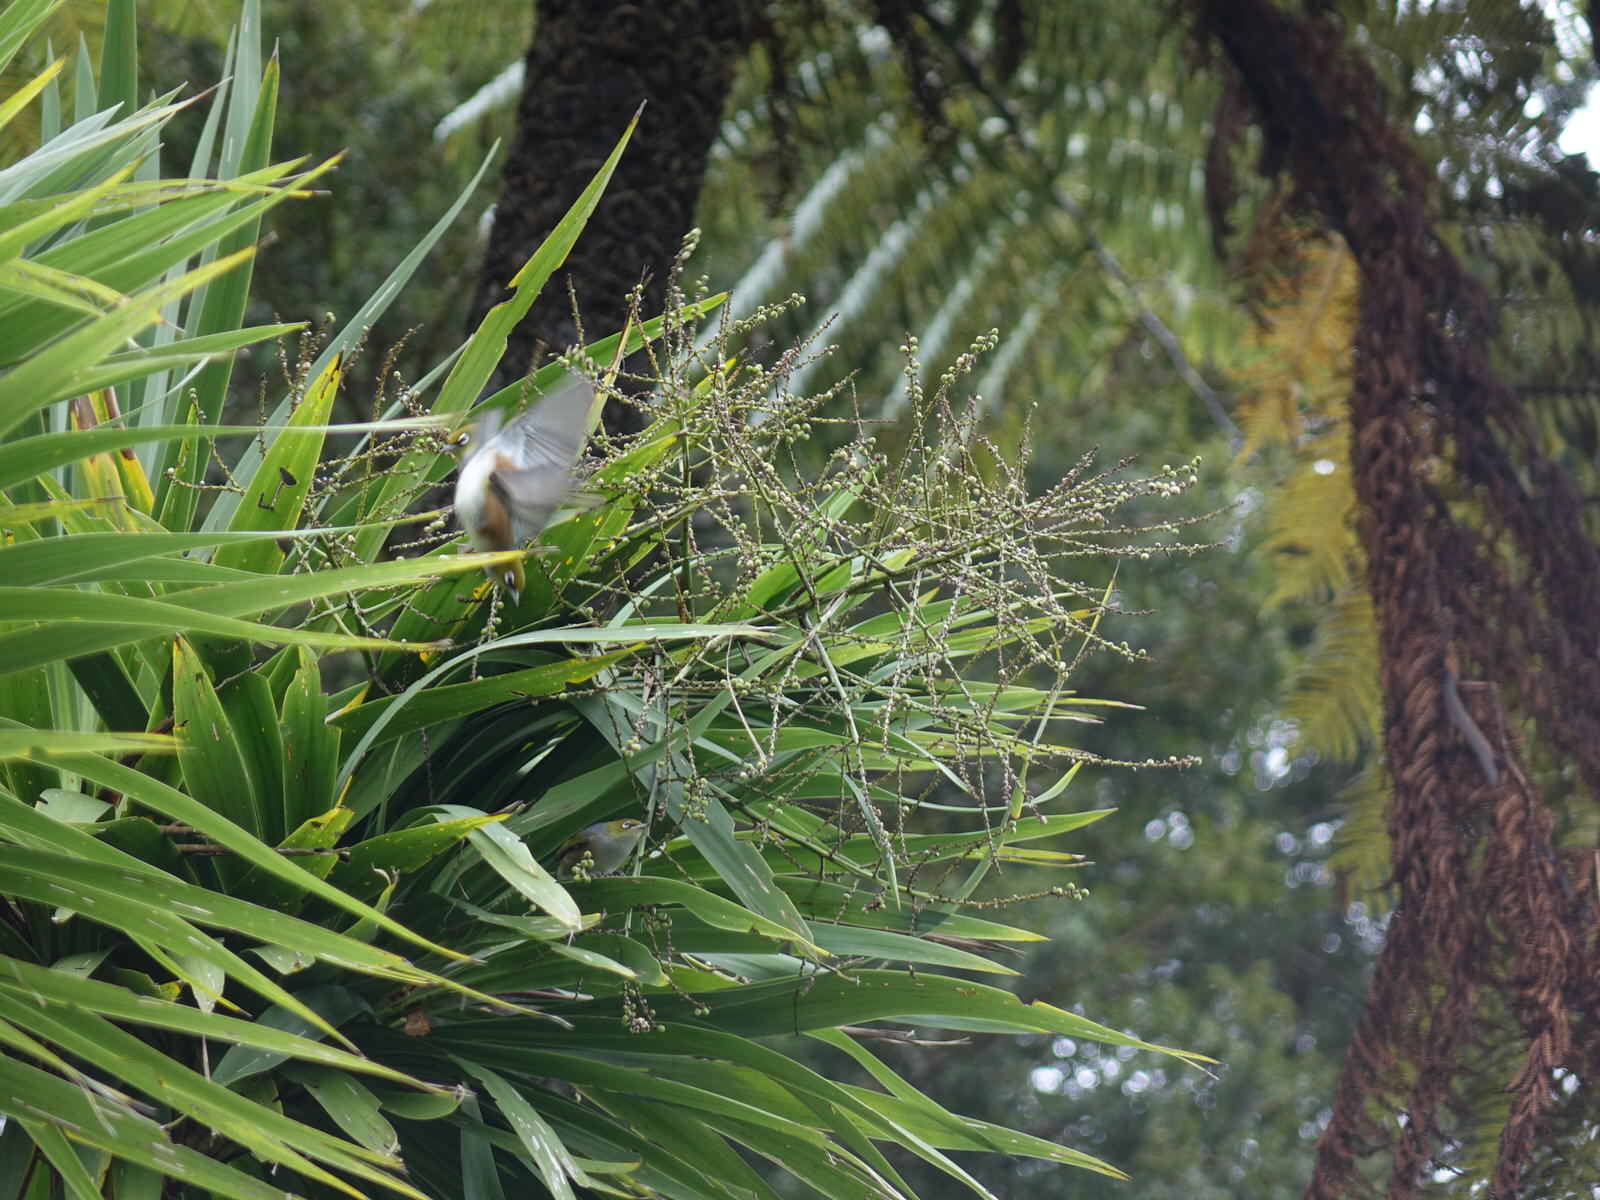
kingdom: Animalia
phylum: Chordata
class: Aves
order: Passeriformes
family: Zosteropidae
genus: Zosterops
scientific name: Zosterops lateralis
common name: Silvereye
